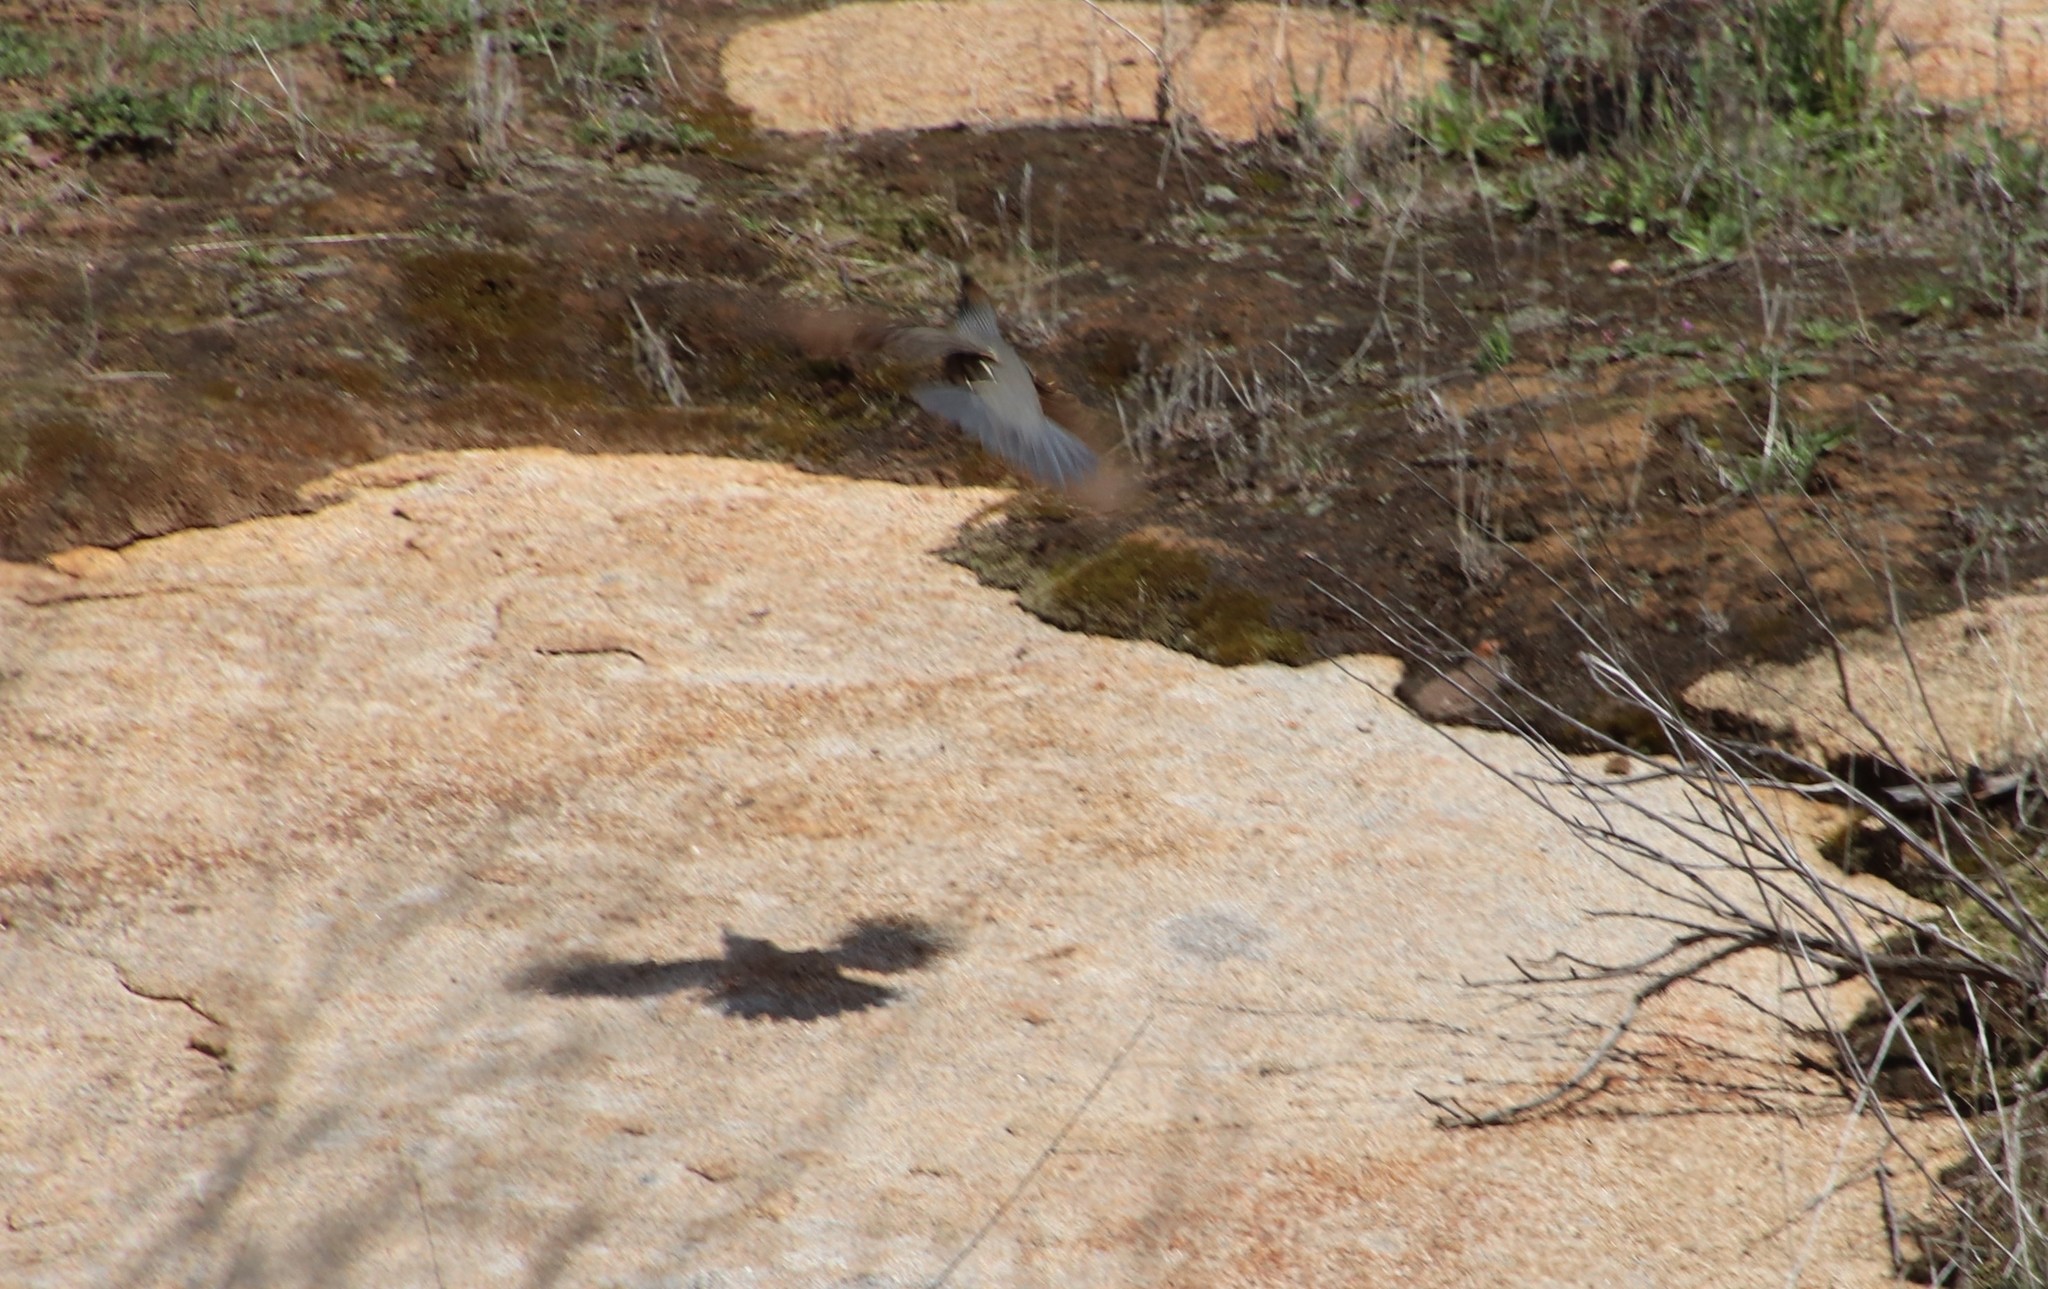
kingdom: Animalia
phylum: Chordata
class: Aves
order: Galliformes
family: Odontophoridae
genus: Callipepla
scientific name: Callipepla californica
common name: California quail
